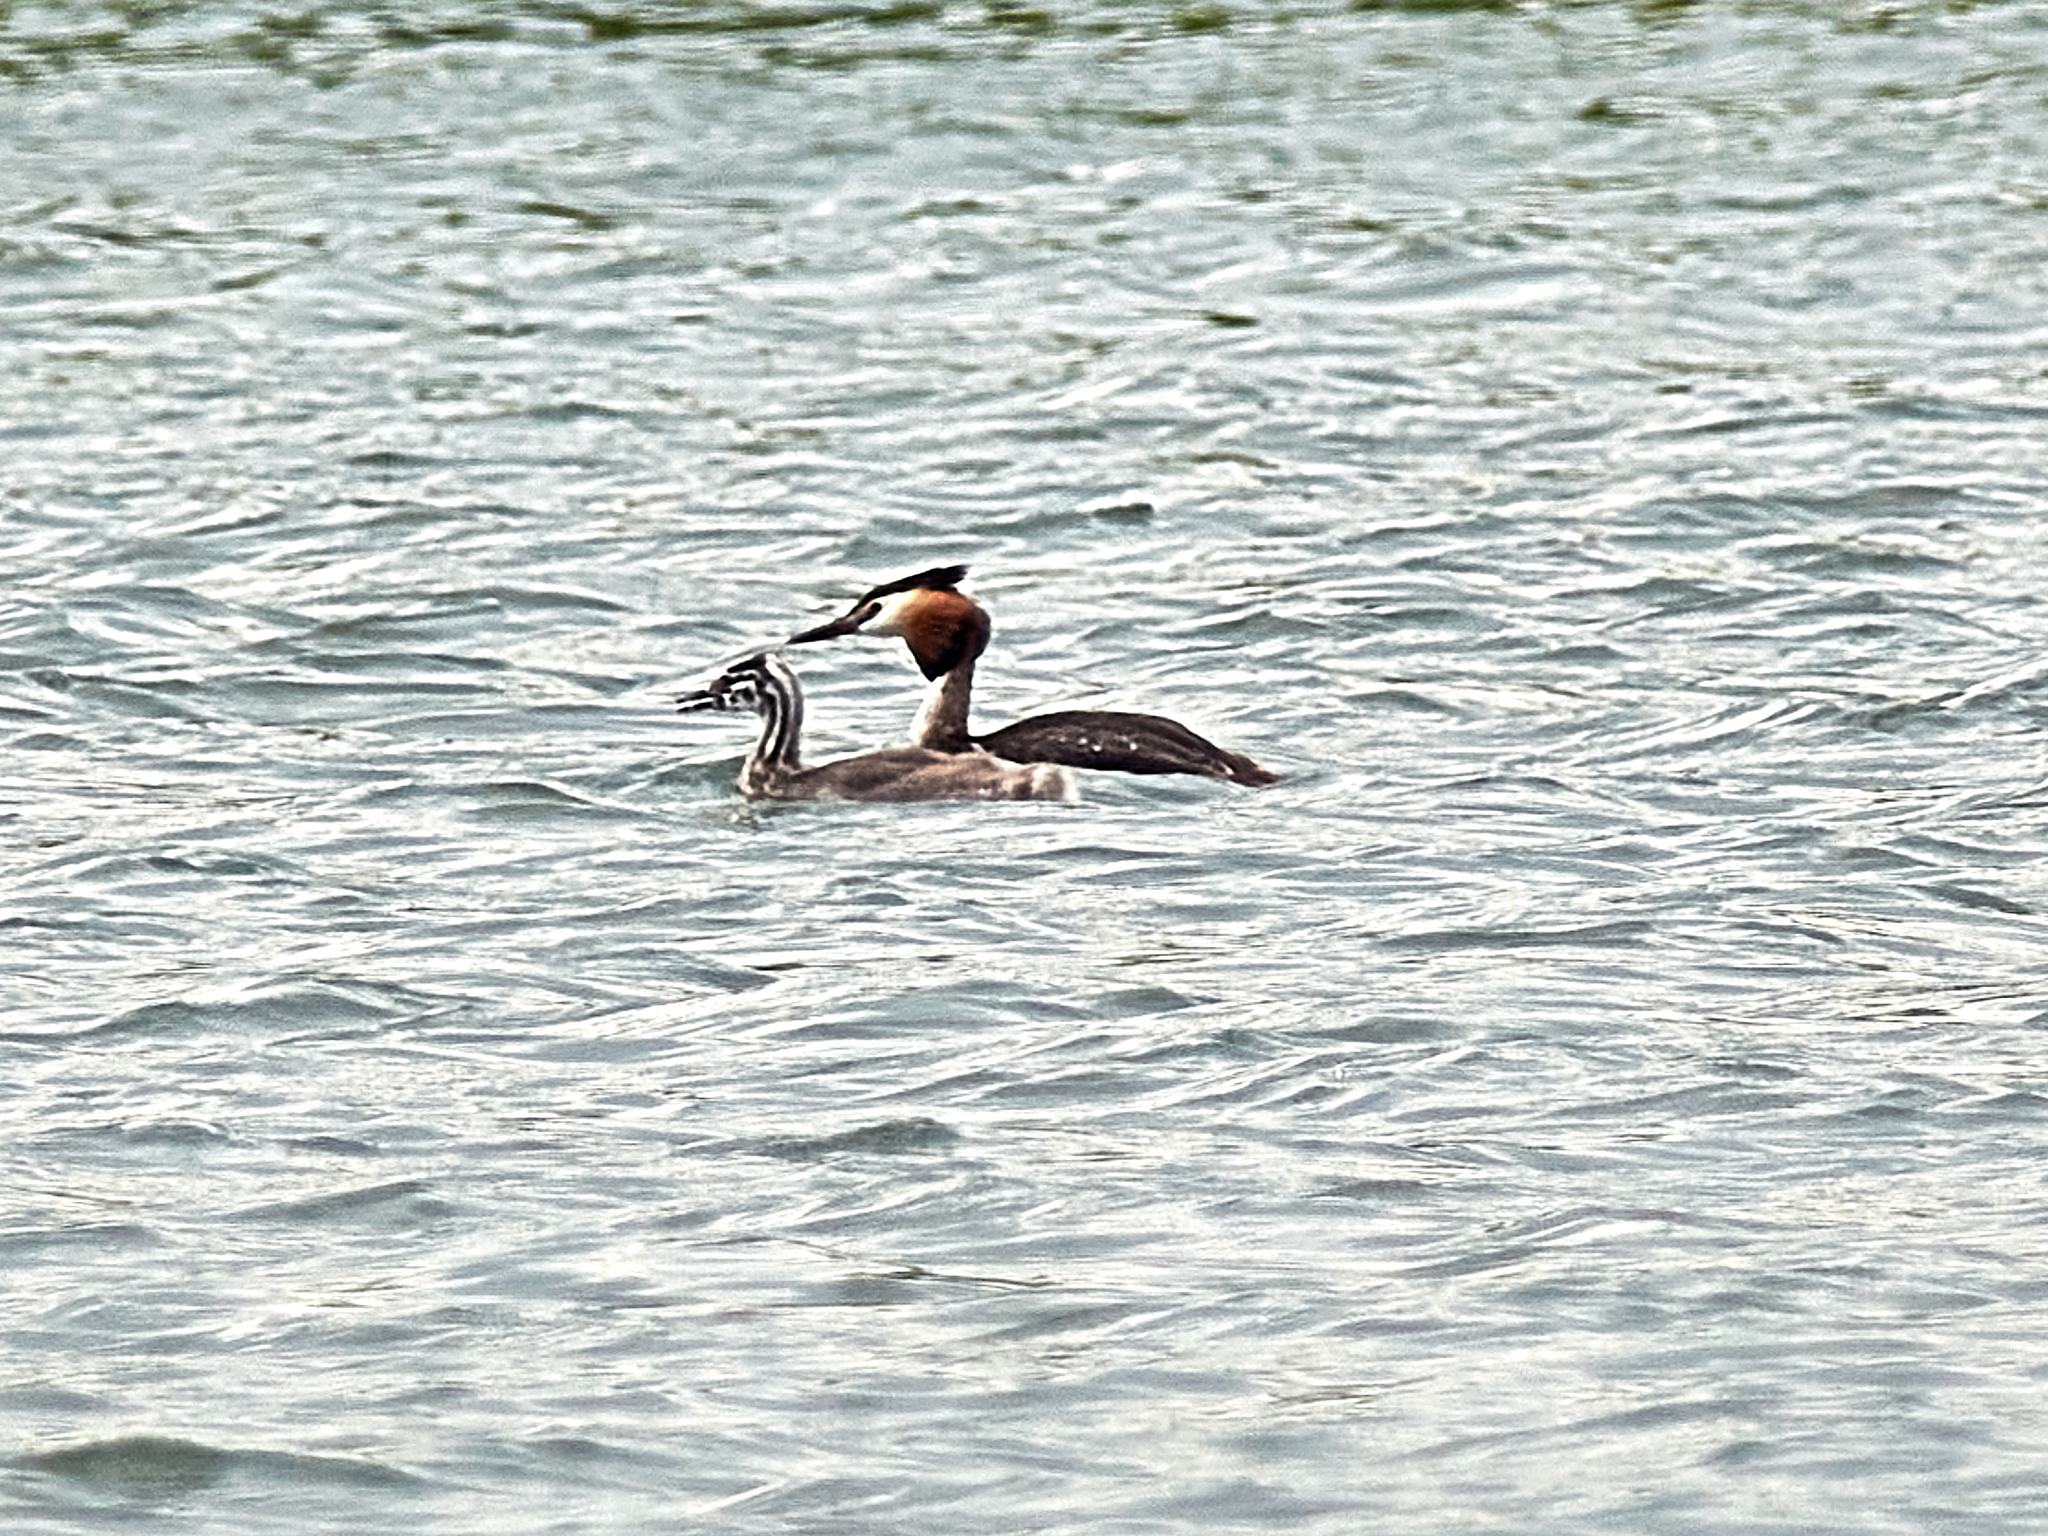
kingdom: Animalia
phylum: Chordata
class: Aves
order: Podicipediformes
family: Podicipedidae
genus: Podiceps
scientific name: Podiceps cristatus
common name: Great crested grebe
